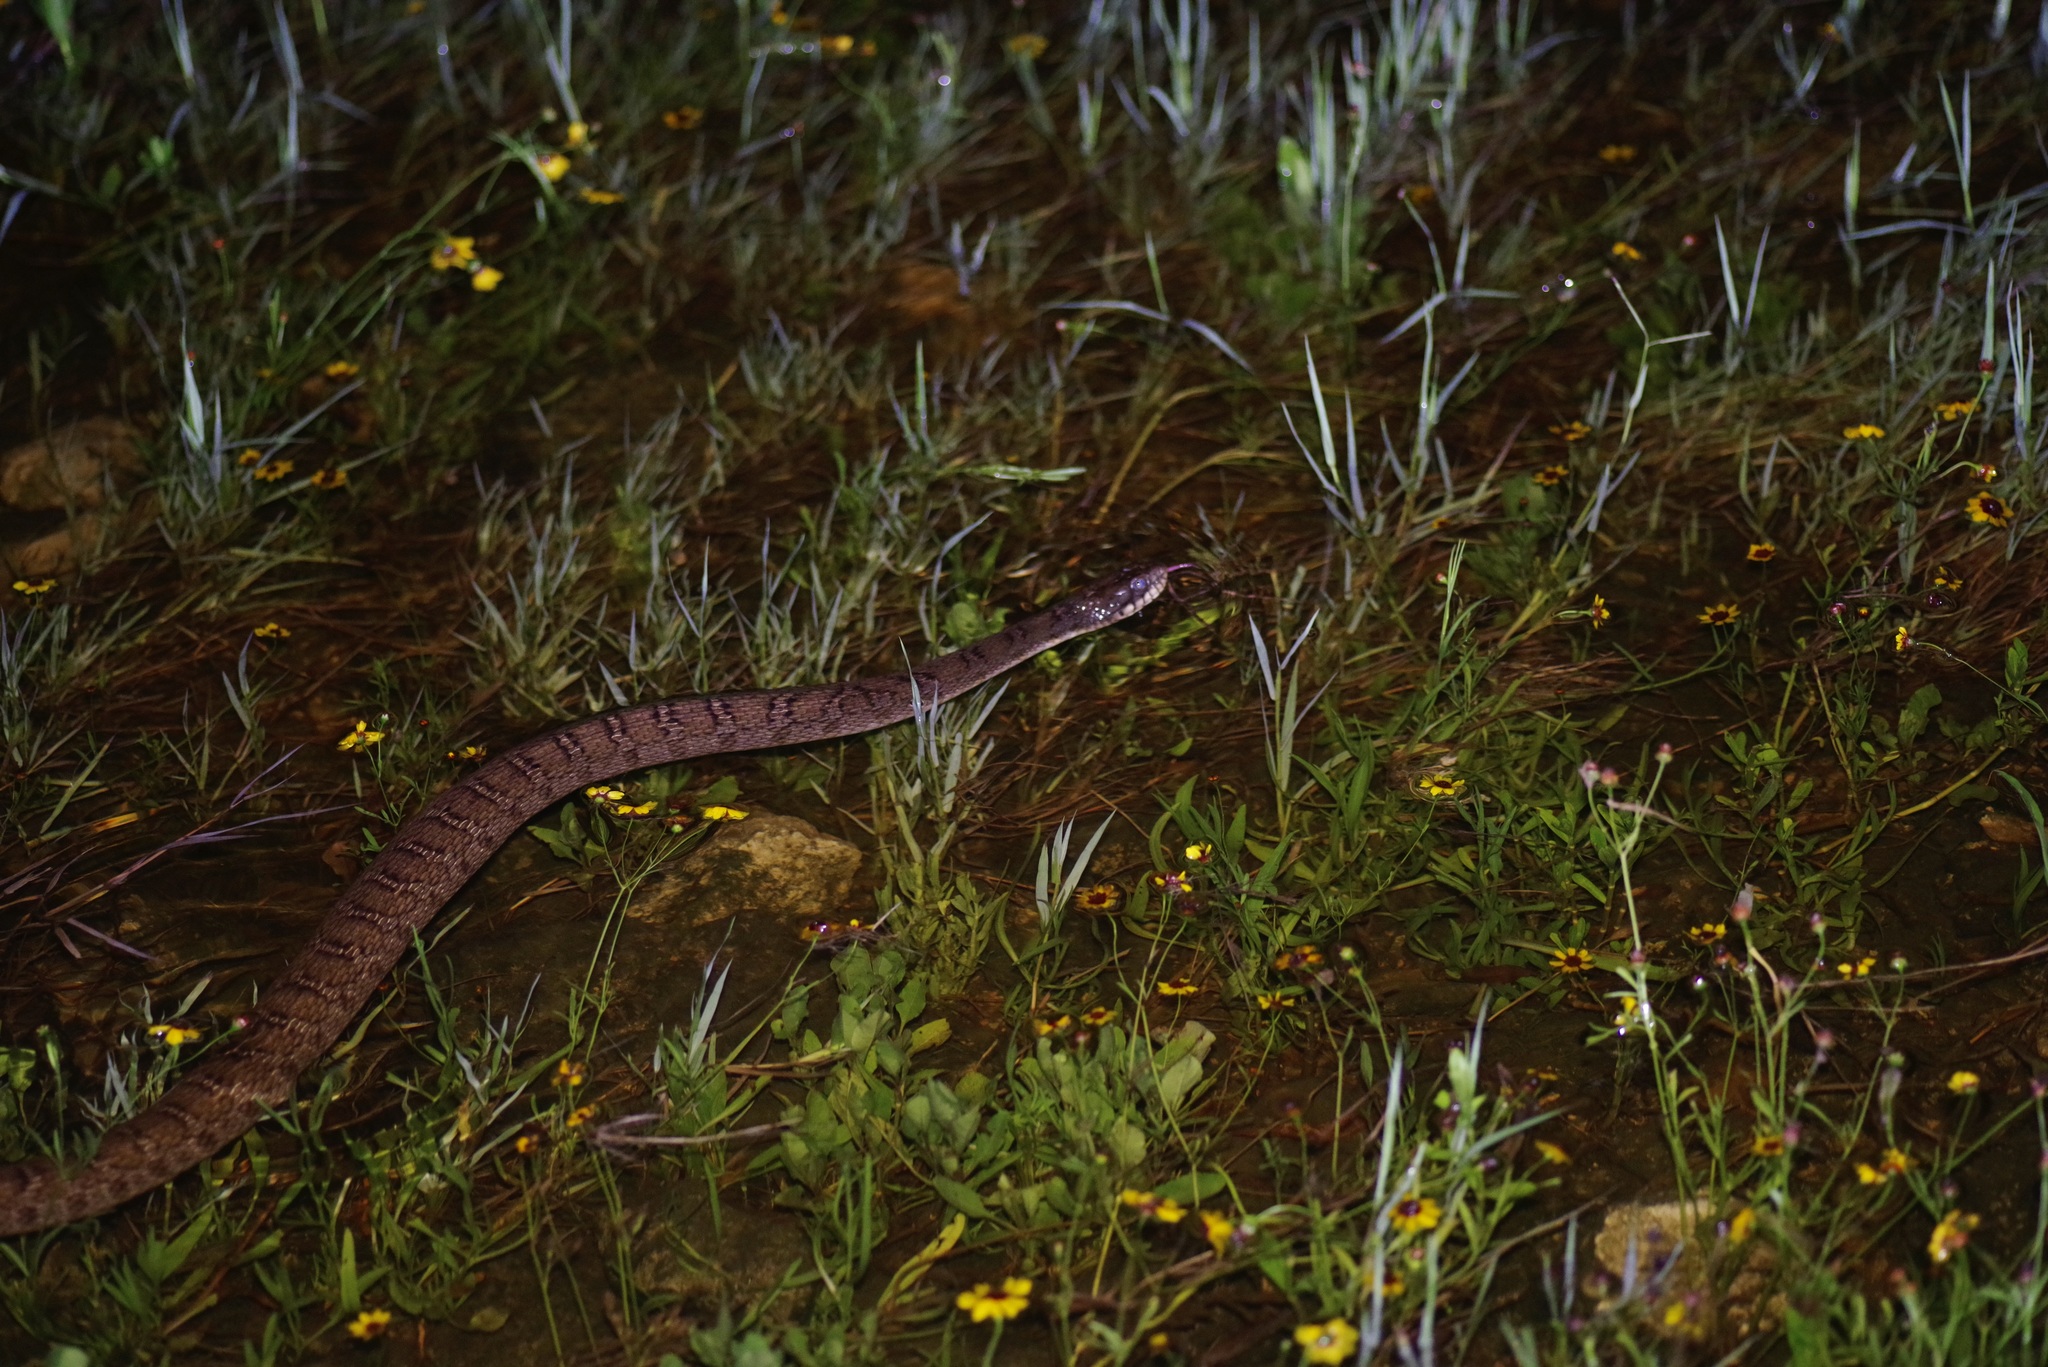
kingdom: Animalia
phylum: Chordata
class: Squamata
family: Colubridae
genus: Nerodia
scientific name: Nerodia erythrogaster
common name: Plainbelly water snake
